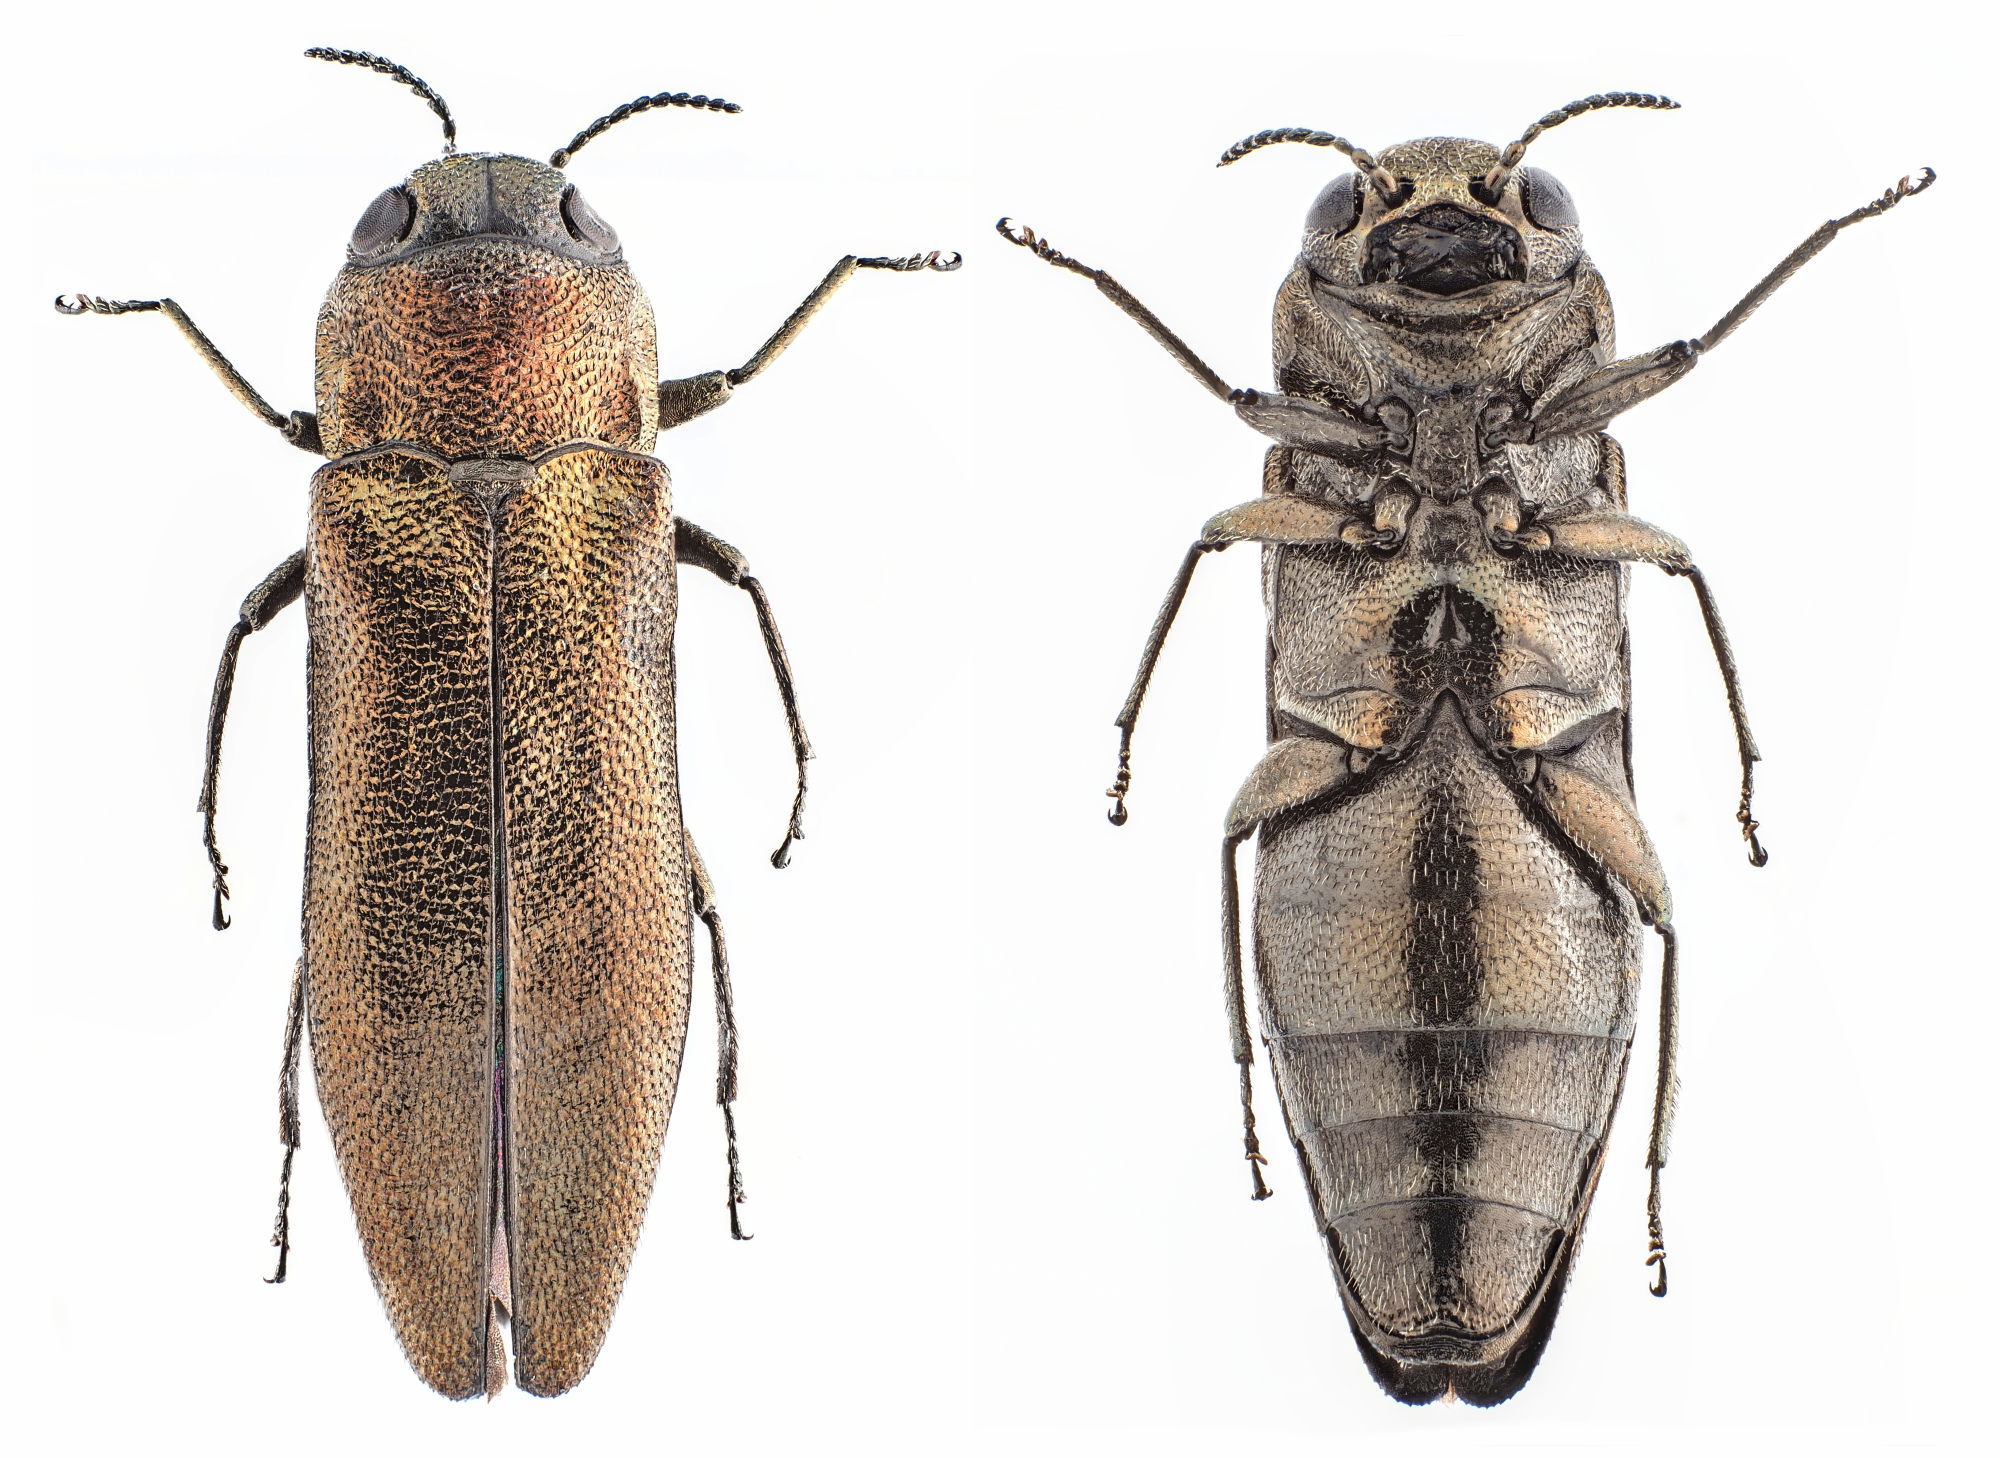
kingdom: Animalia
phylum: Arthropoda
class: Insecta
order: Coleoptera
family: Buprestidae
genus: Agrilus
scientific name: Agrilus convexicollis
